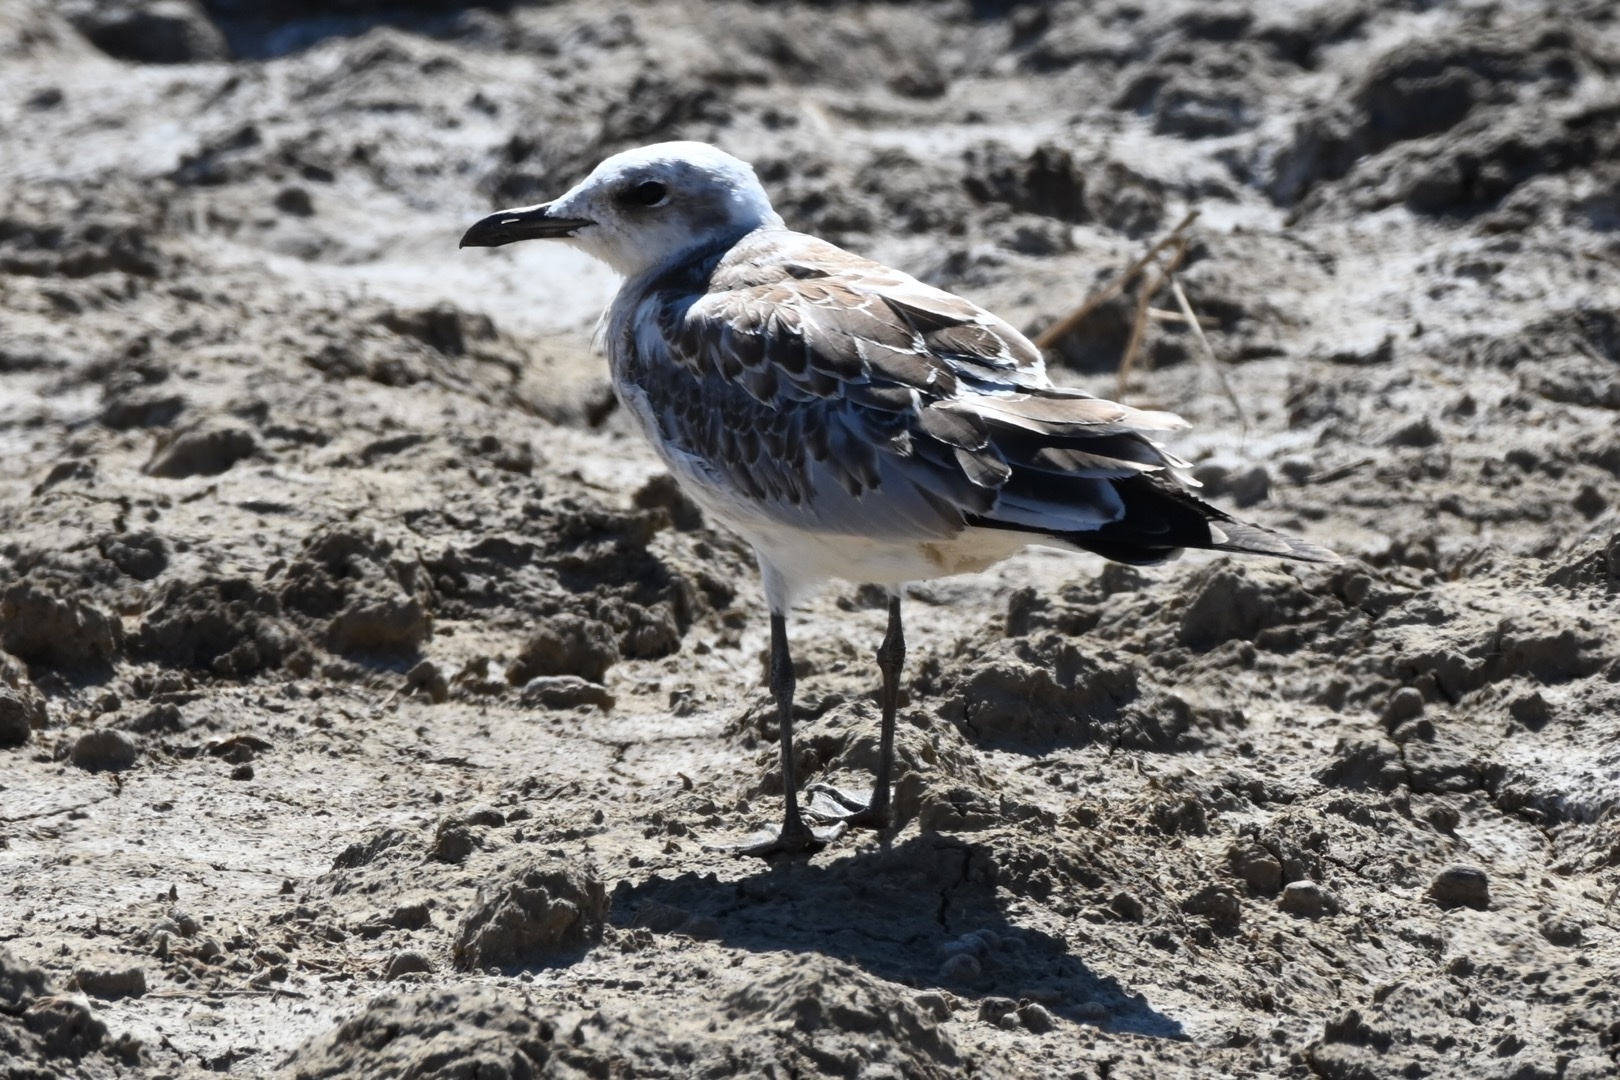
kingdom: Animalia
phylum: Chordata
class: Aves
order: Charadriiformes
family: Laridae
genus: Ichthyaetus
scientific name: Ichthyaetus melanocephalus
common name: Mediterranean gull
